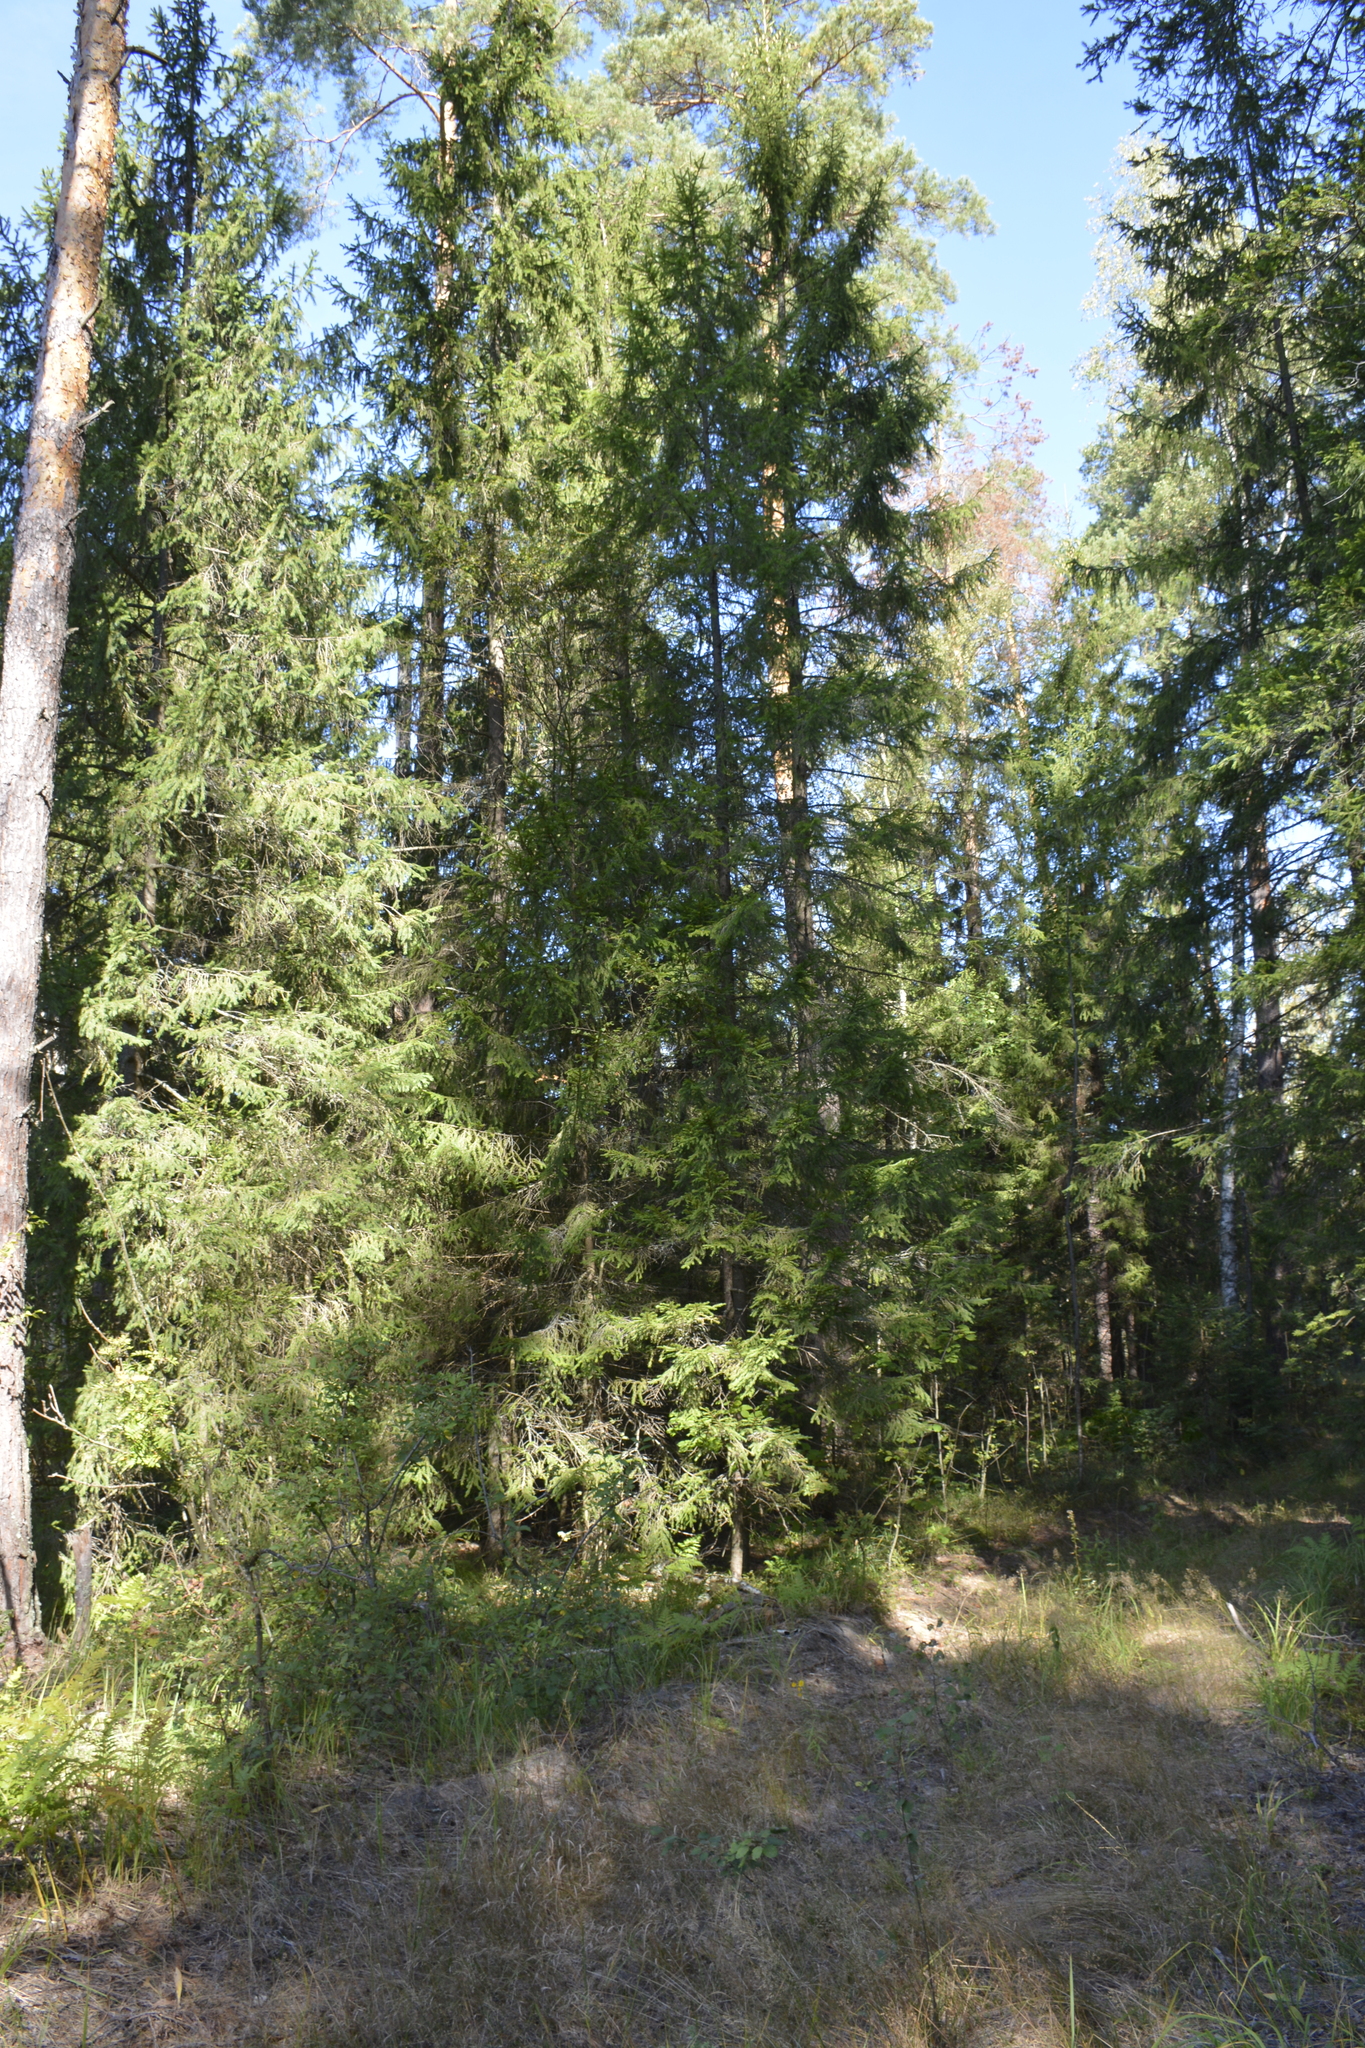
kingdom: Plantae
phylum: Tracheophyta
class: Pinopsida
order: Pinales
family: Pinaceae
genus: Picea
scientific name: Picea abies
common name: Norway spruce
